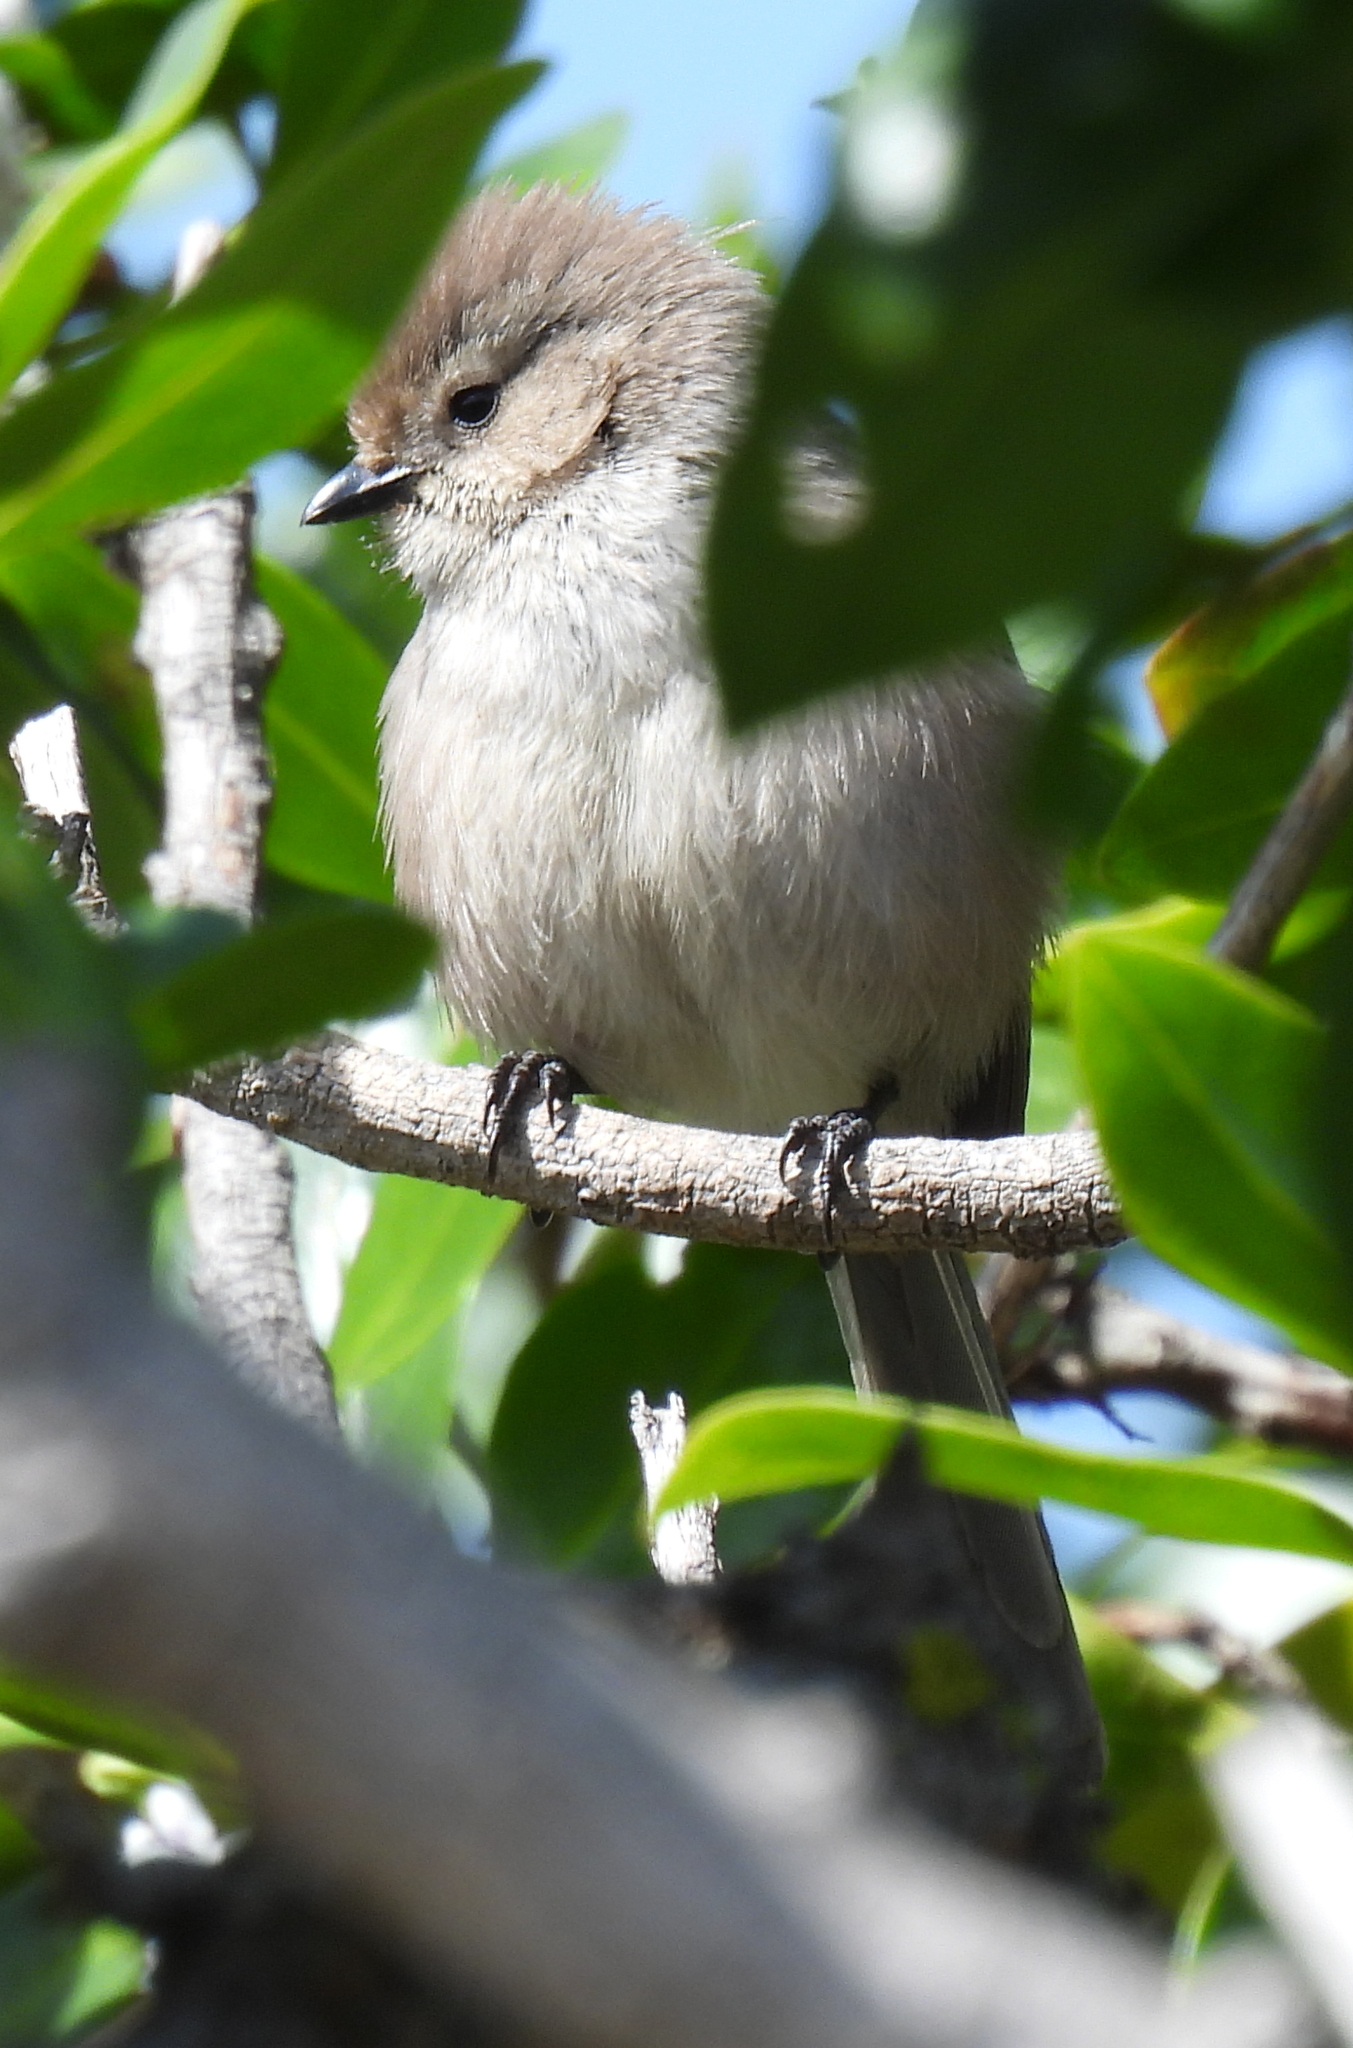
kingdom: Animalia
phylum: Chordata
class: Aves
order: Passeriformes
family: Aegithalidae
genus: Psaltriparus
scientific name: Psaltriparus minimus
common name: American bushtit
